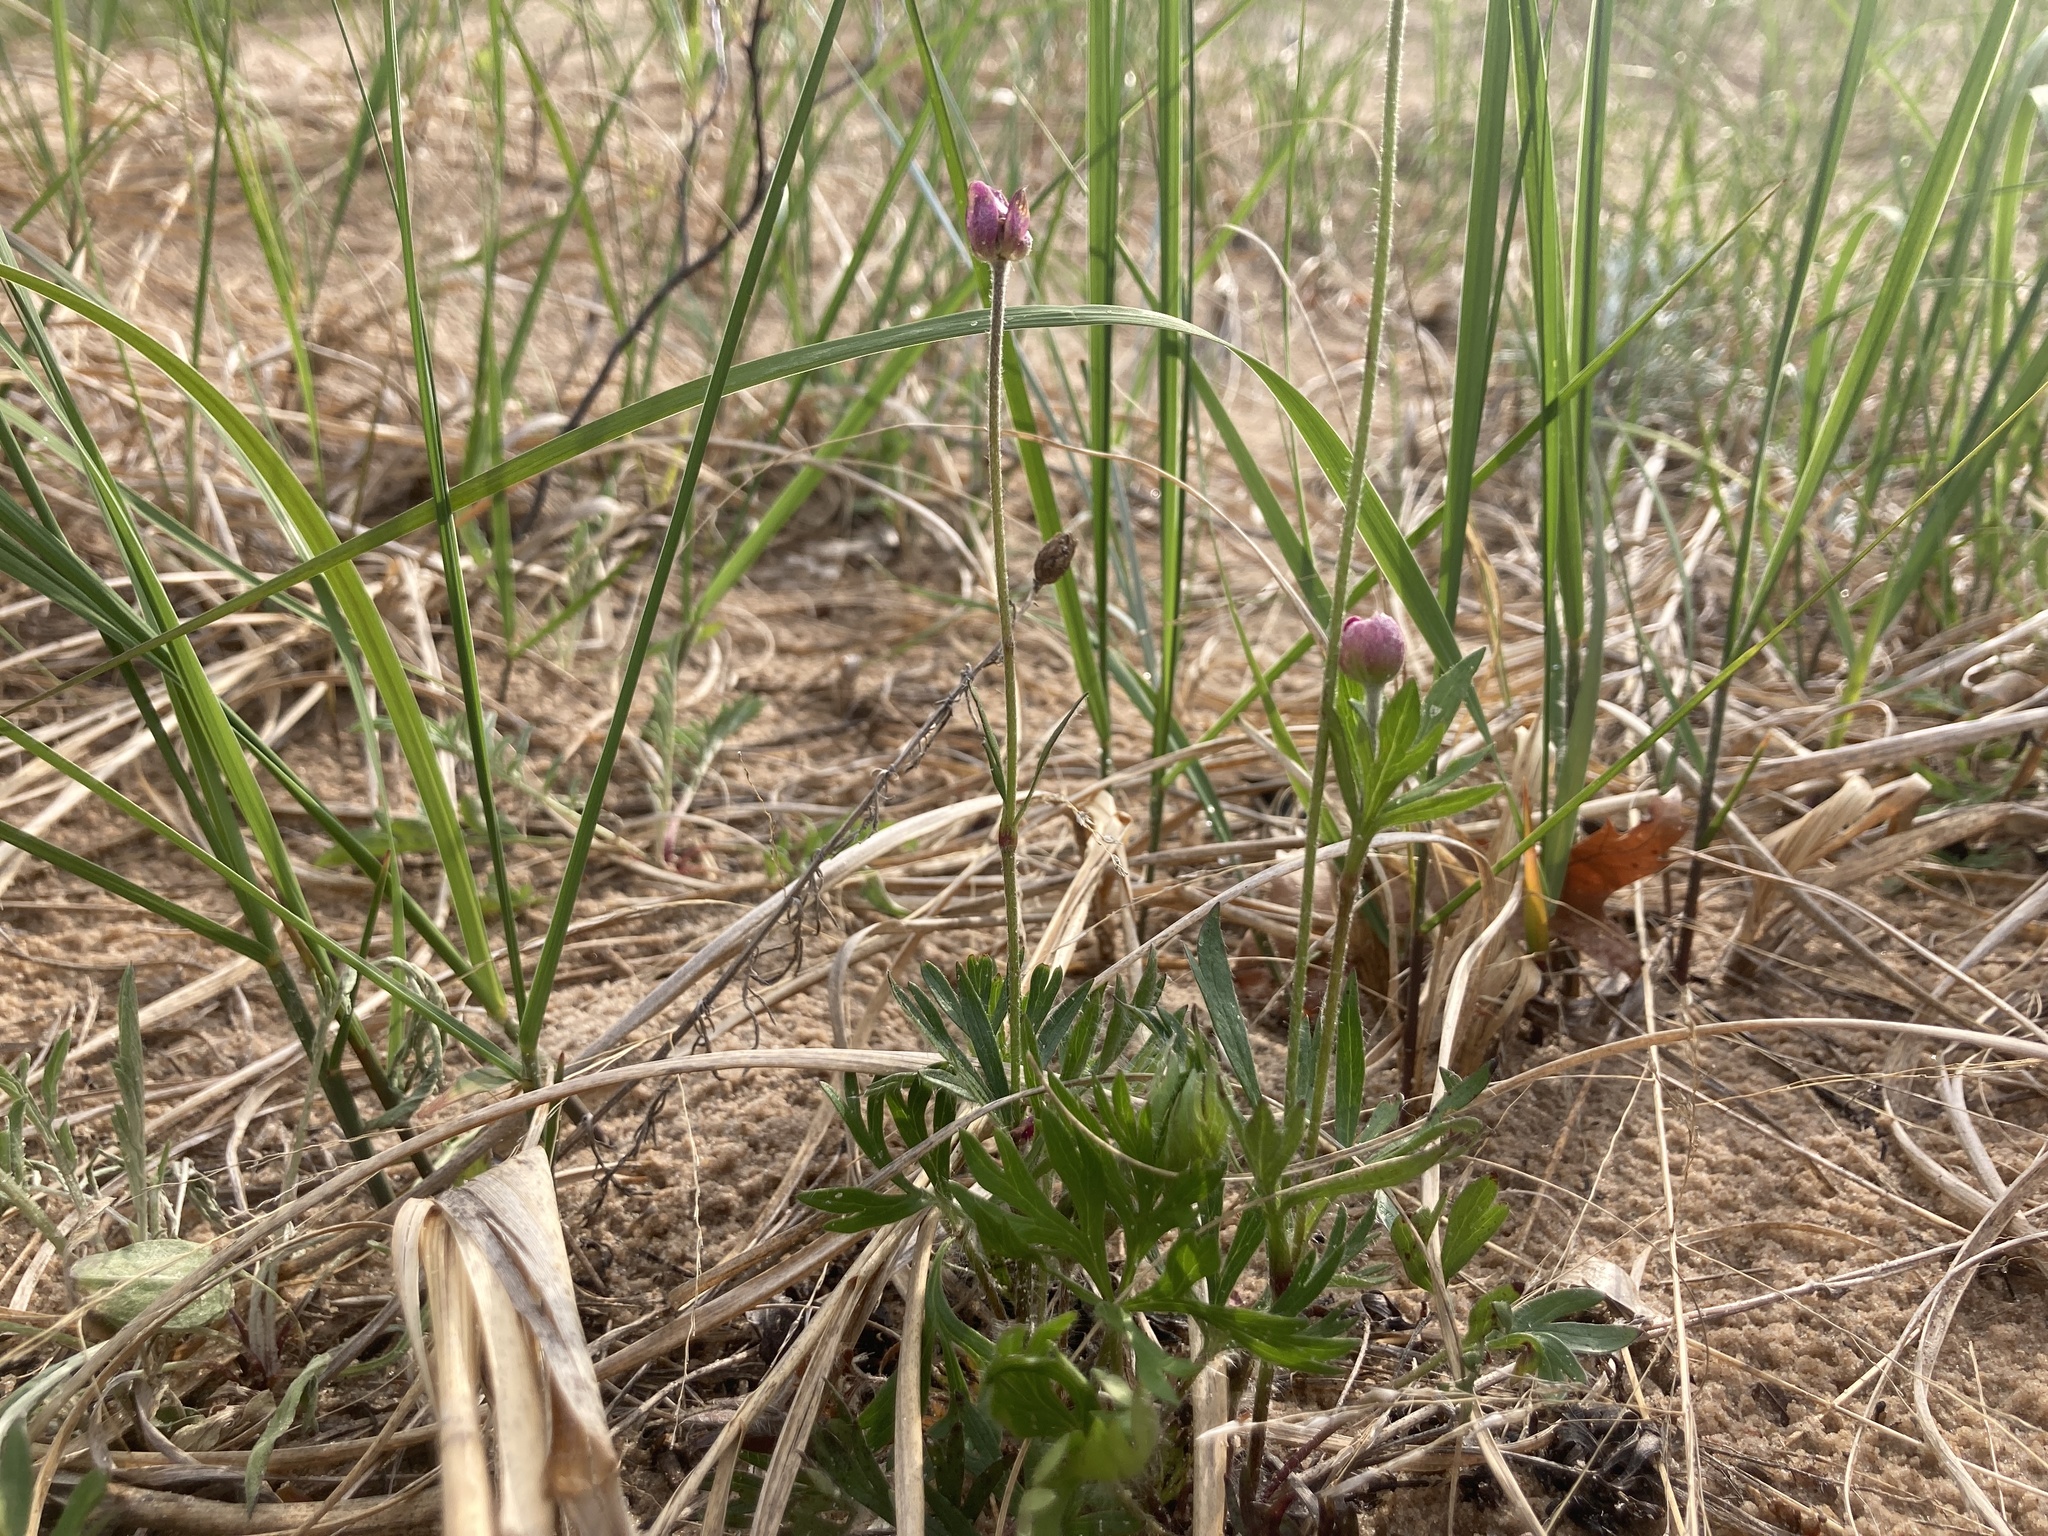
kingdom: Plantae
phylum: Tracheophyta
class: Magnoliopsida
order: Ranunculales
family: Ranunculaceae
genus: Anemone
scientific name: Anemone multifida
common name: Bird's-foot anemone
